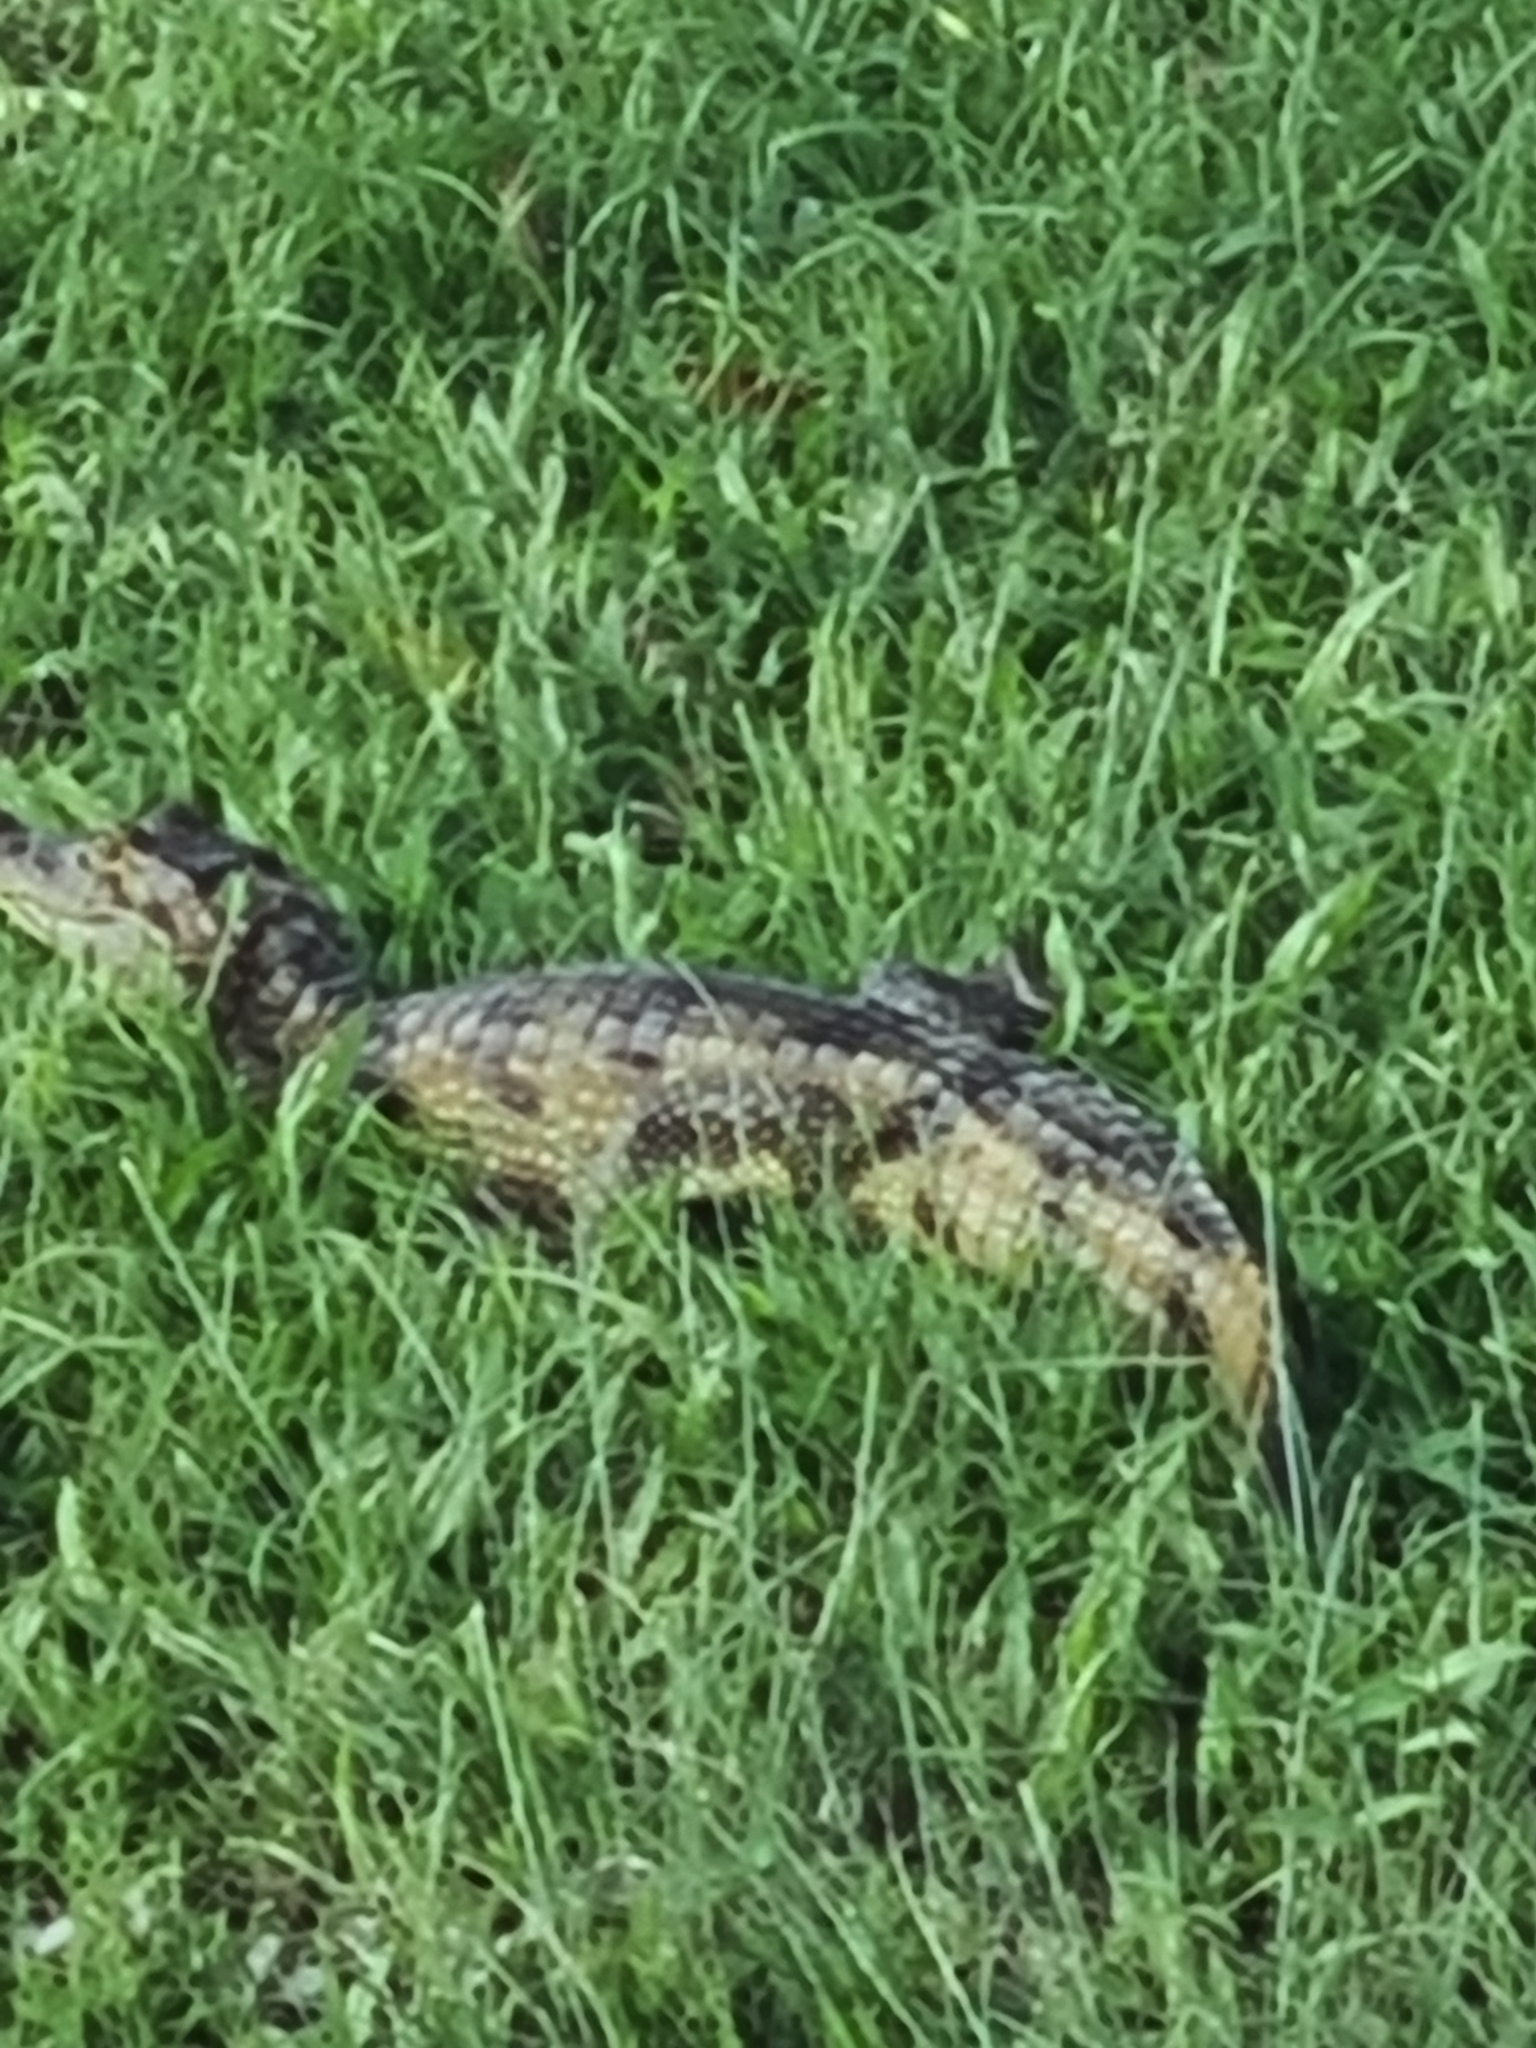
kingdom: Animalia
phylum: Chordata
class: Crocodylia
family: Alligatoridae
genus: Caiman
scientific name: Caiman crocodilus
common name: Common caiman
